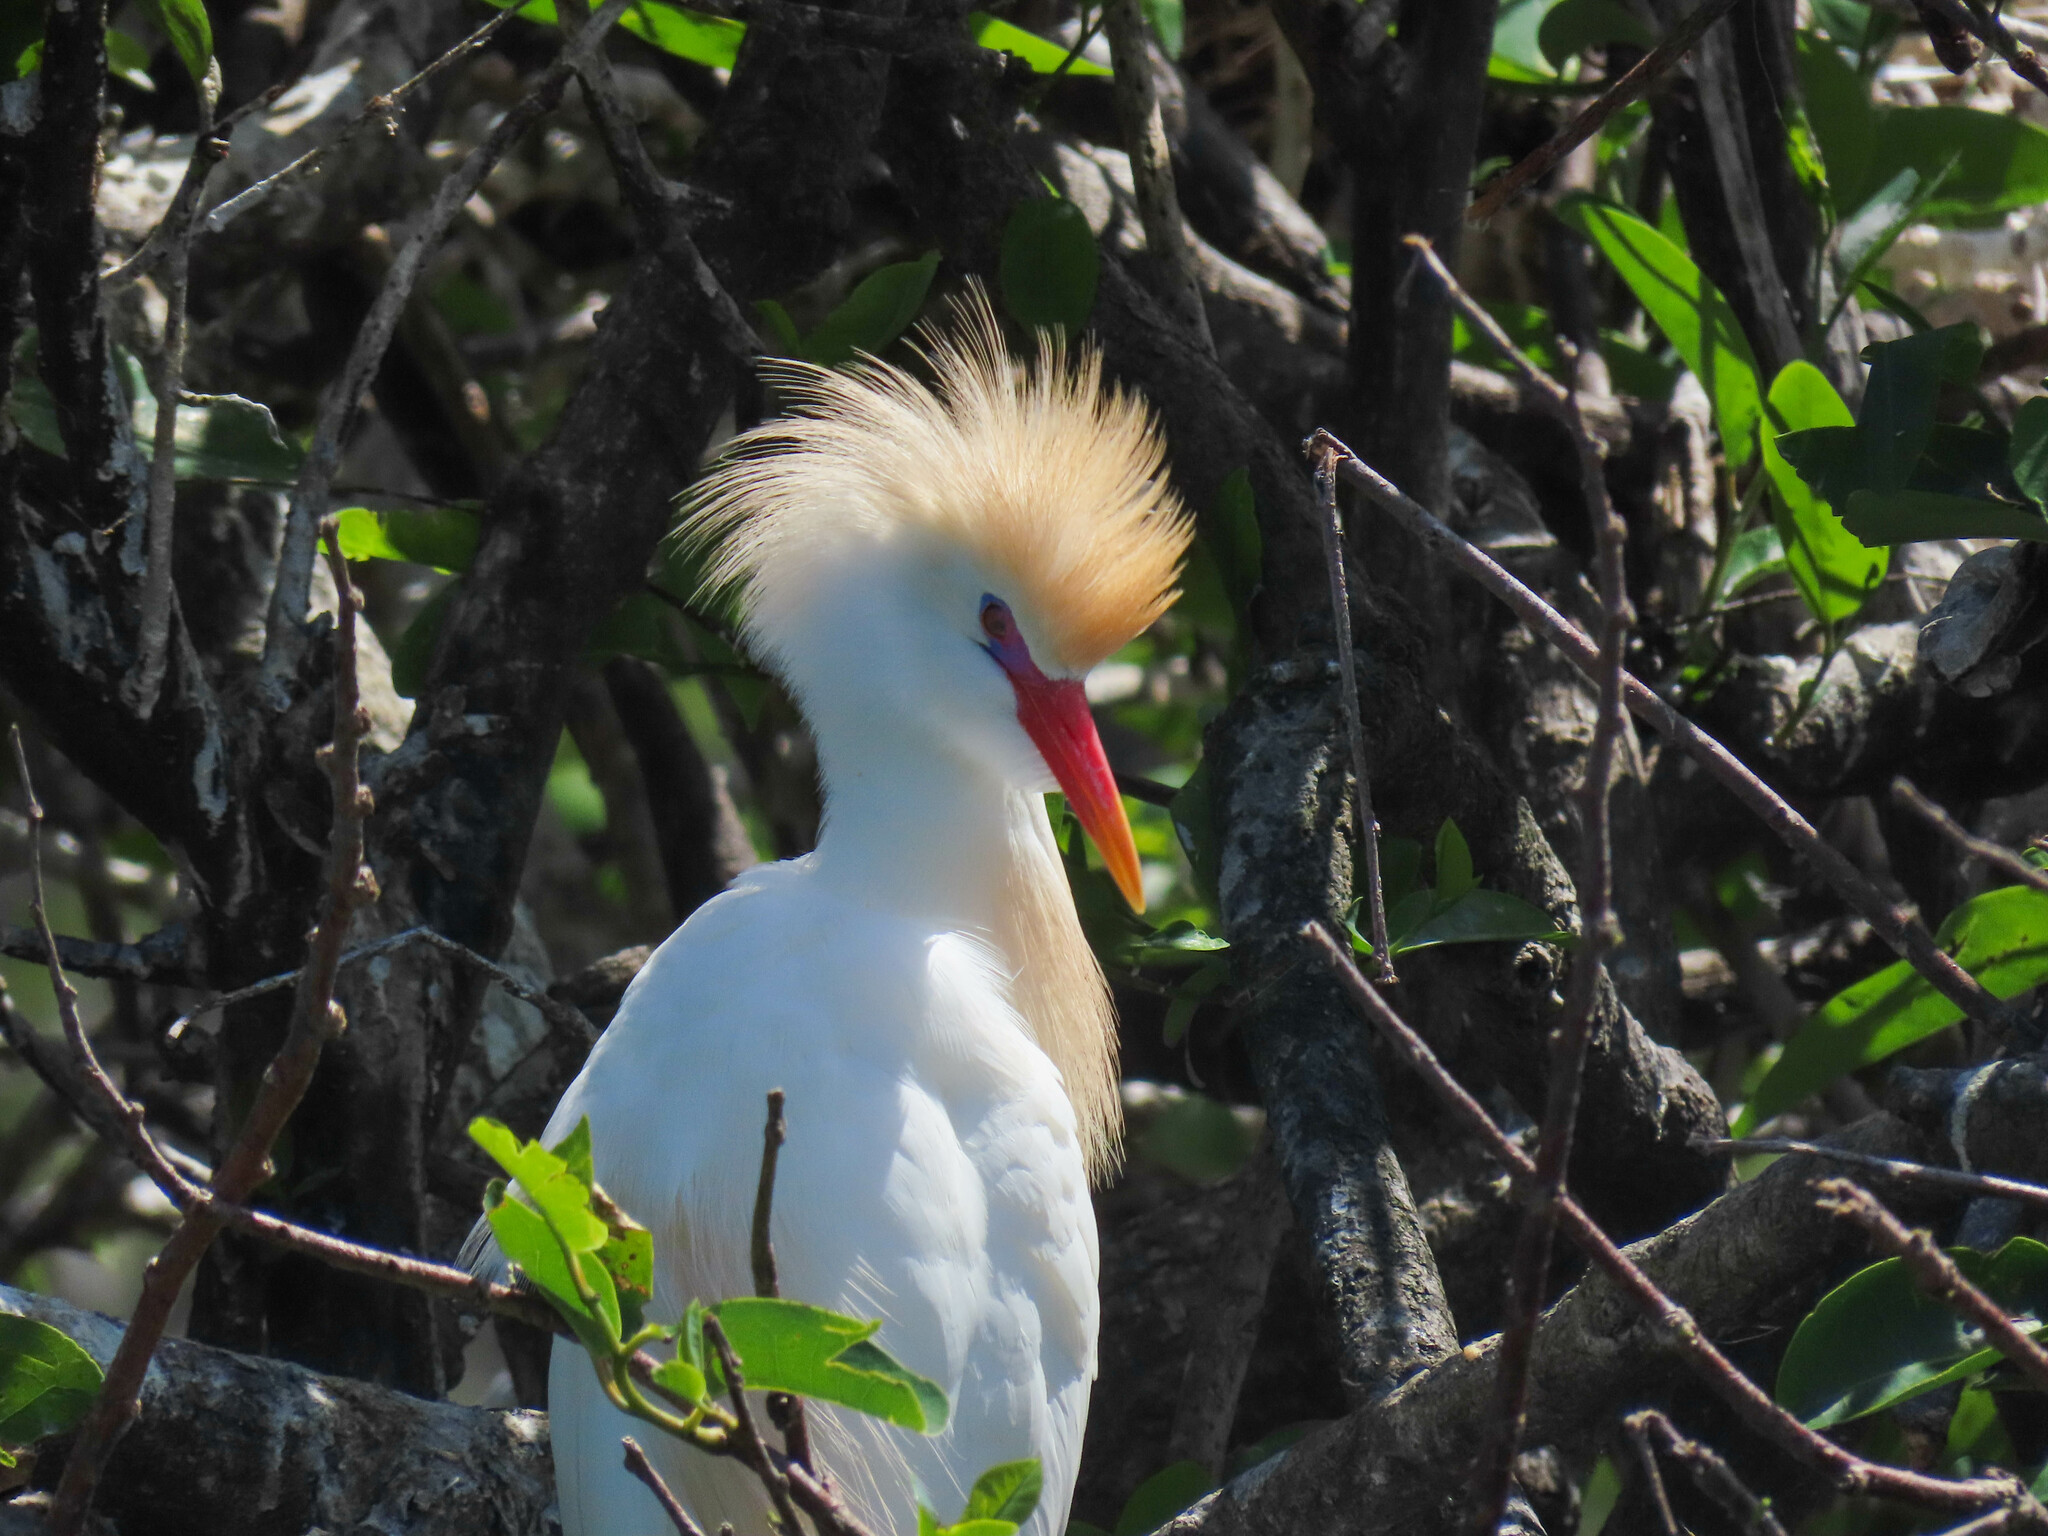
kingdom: Animalia
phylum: Chordata
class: Aves
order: Pelecaniformes
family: Ardeidae
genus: Bubulcus
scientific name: Bubulcus ibis
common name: Cattle egret
